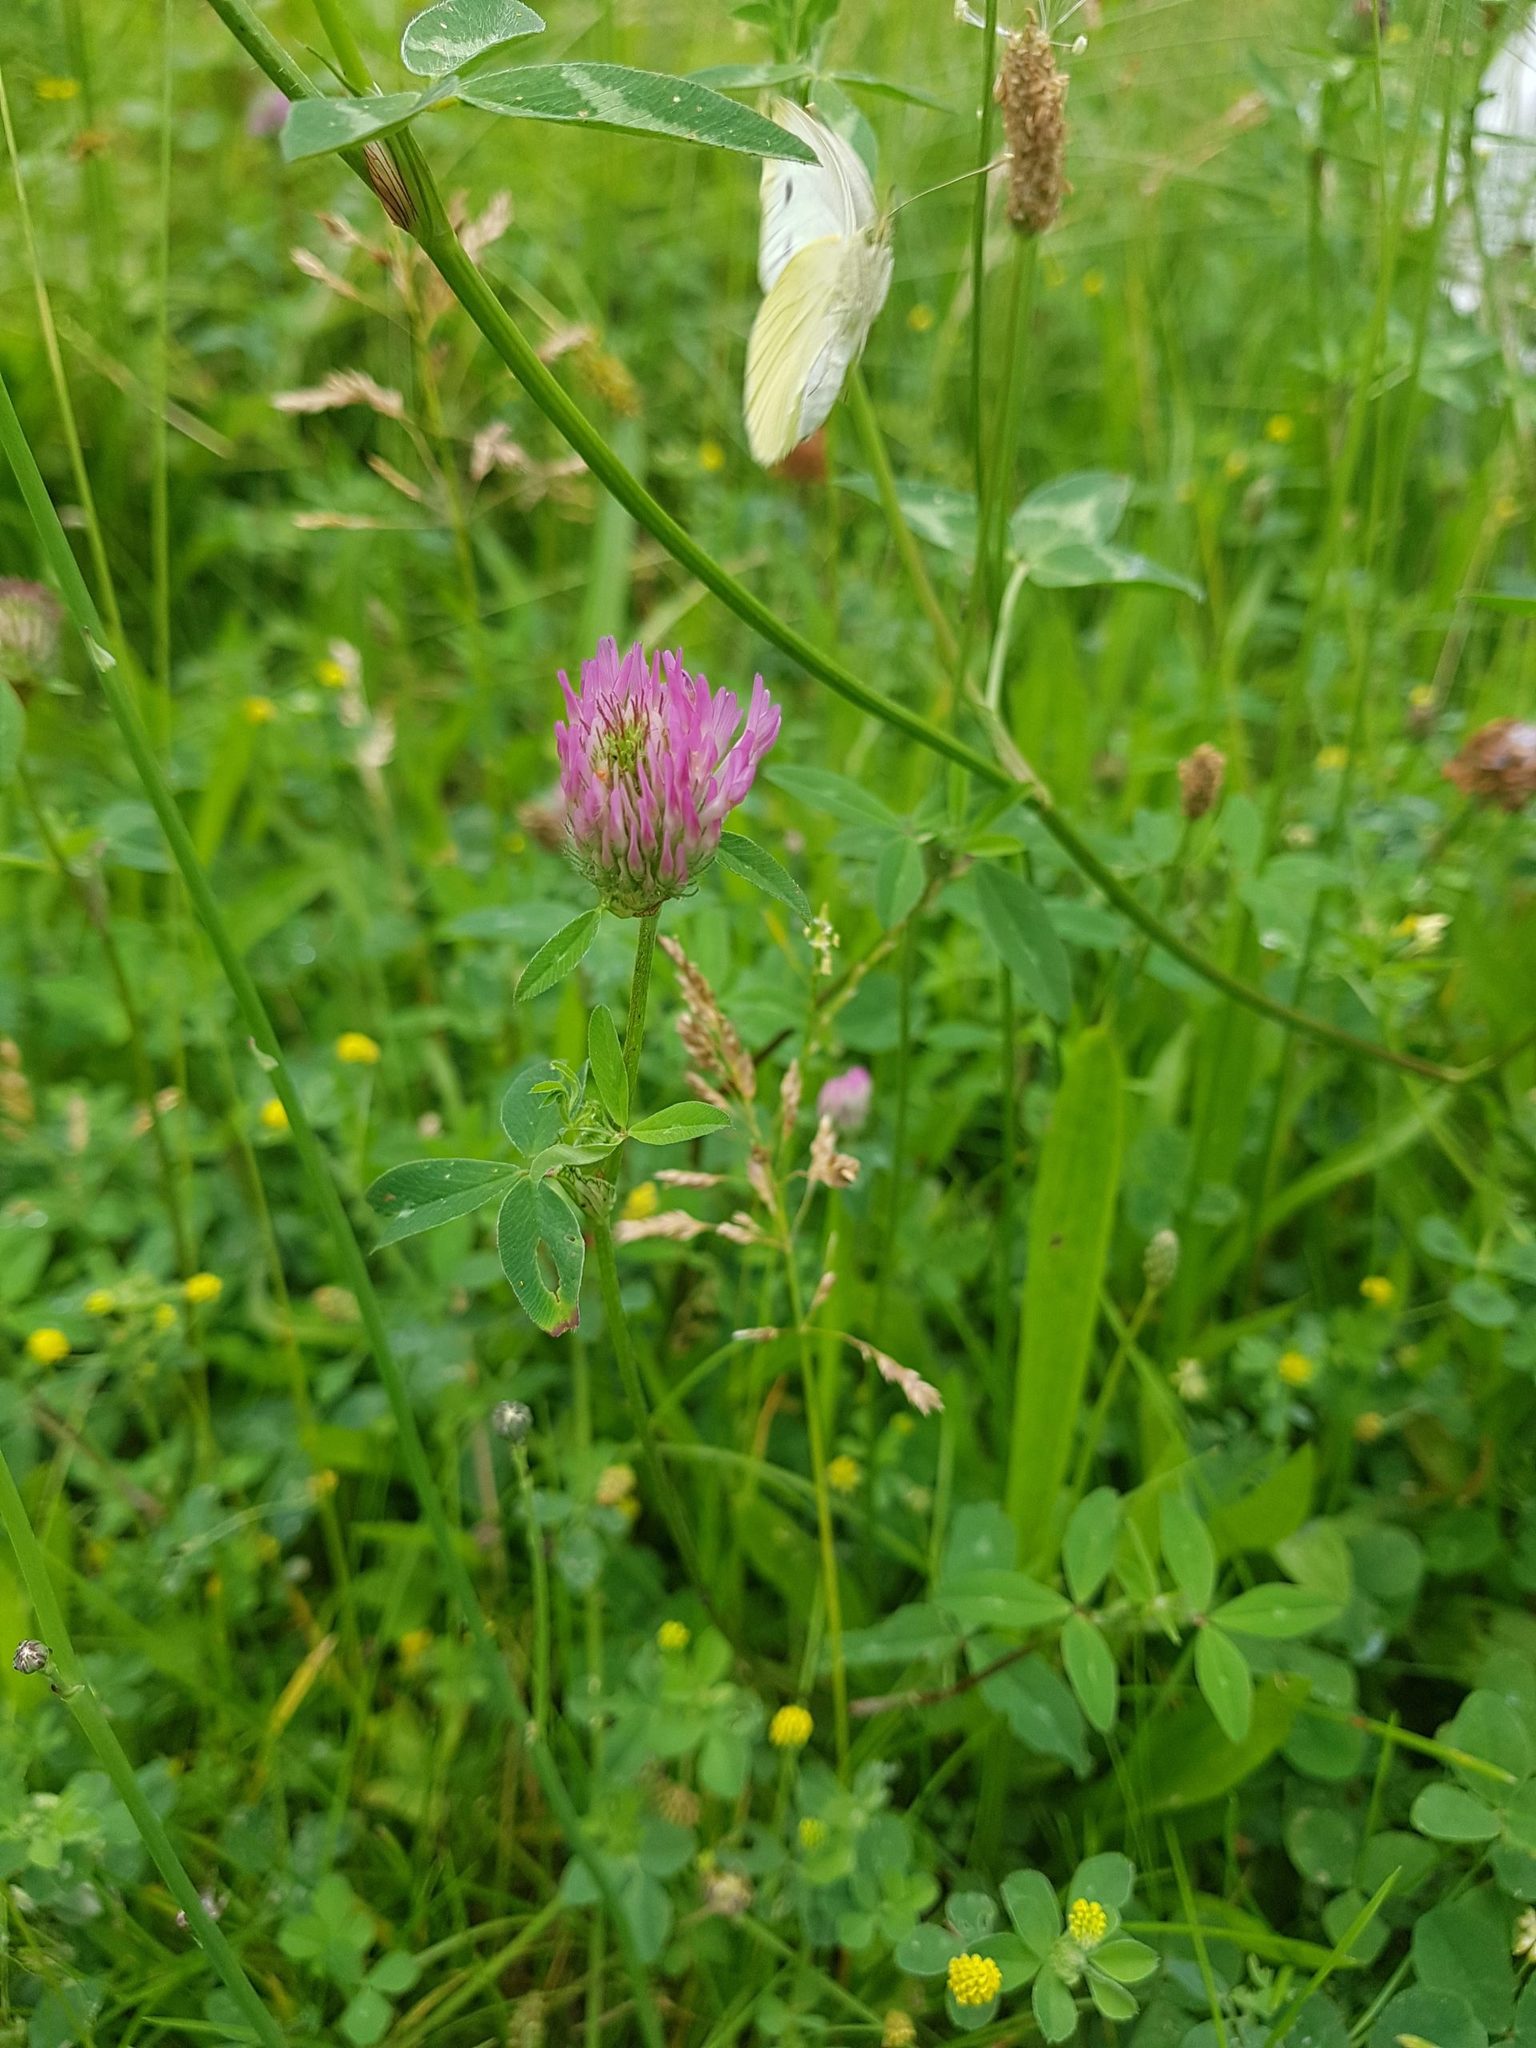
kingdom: Animalia
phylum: Arthropoda
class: Insecta
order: Lepidoptera
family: Pieridae
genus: Pieris
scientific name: Pieris rapae
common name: Small white
